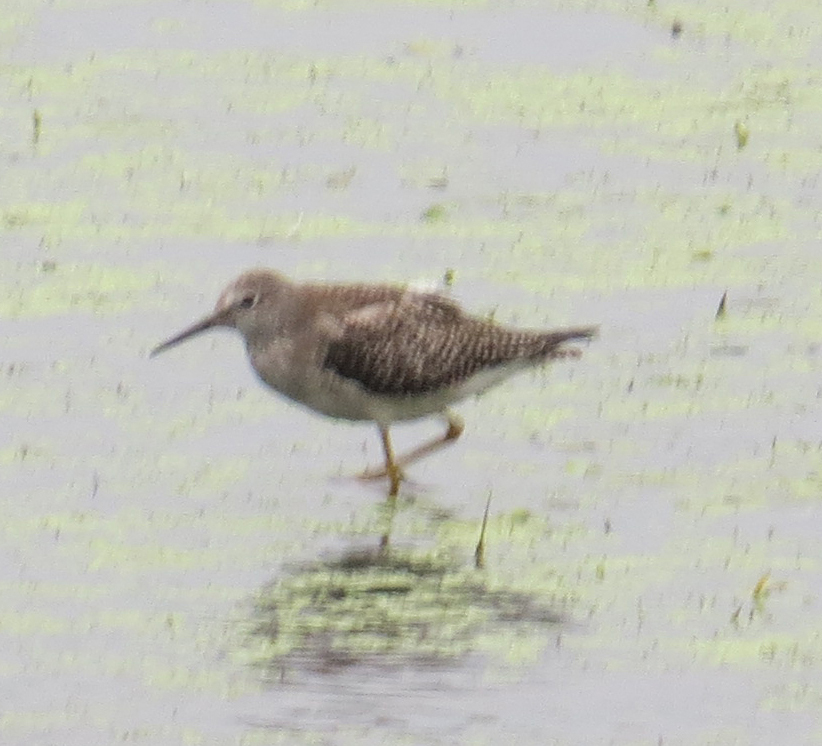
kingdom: Animalia
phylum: Chordata
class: Aves
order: Charadriiformes
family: Scolopacidae
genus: Tringa
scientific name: Tringa flavipes
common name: Lesser yellowlegs
